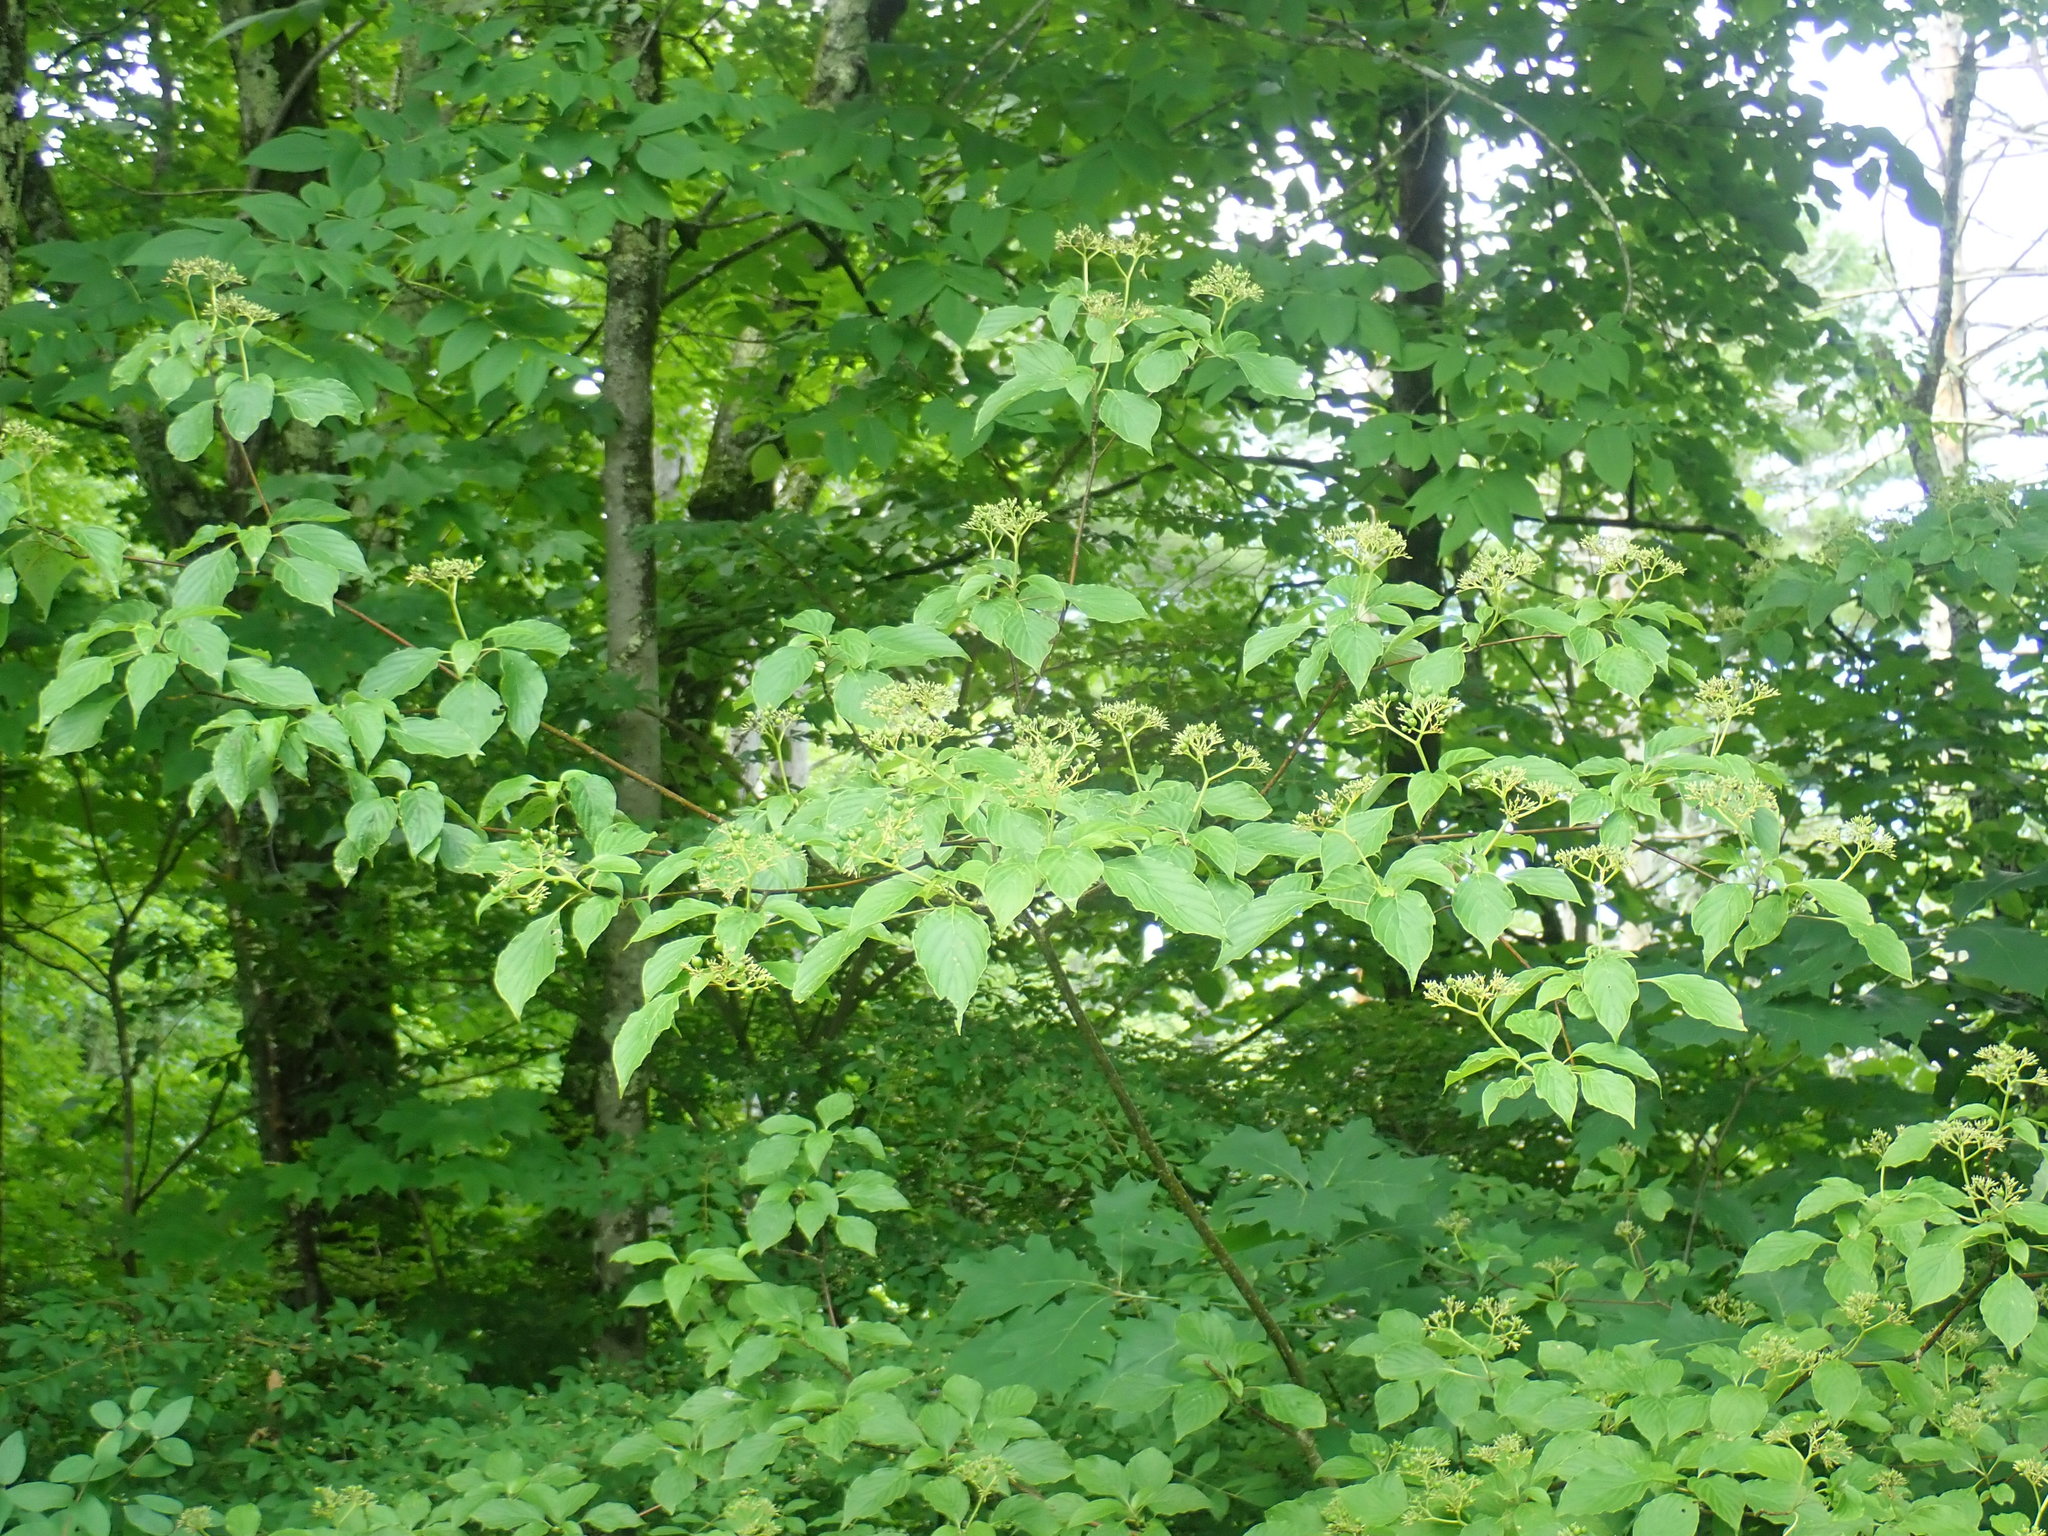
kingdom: Plantae
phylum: Tracheophyta
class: Magnoliopsida
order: Cornales
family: Cornaceae
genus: Cornus
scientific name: Cornus alternifolia
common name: Pagoda dogwood
